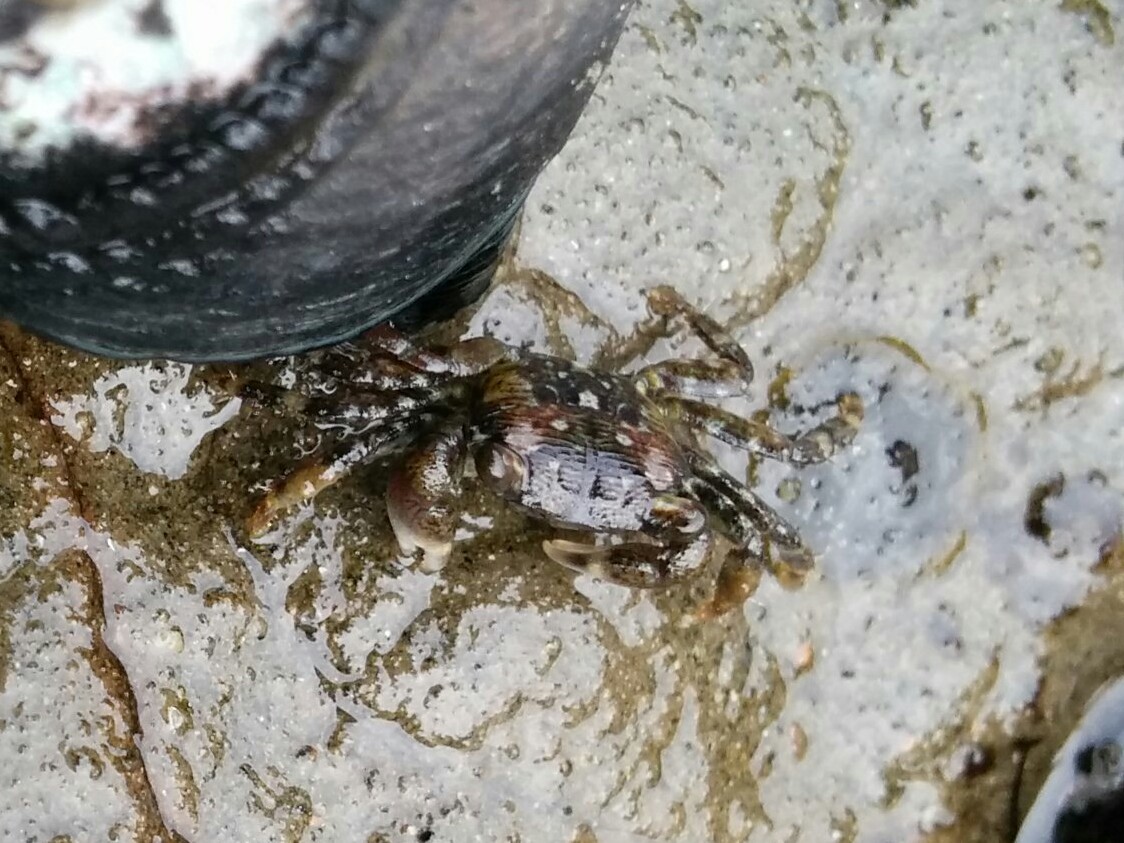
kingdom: Animalia
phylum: Arthropoda
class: Malacostraca
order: Decapoda
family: Grapsidae
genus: Pachygrapsus
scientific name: Pachygrapsus crassipes
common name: Striped shore crab
